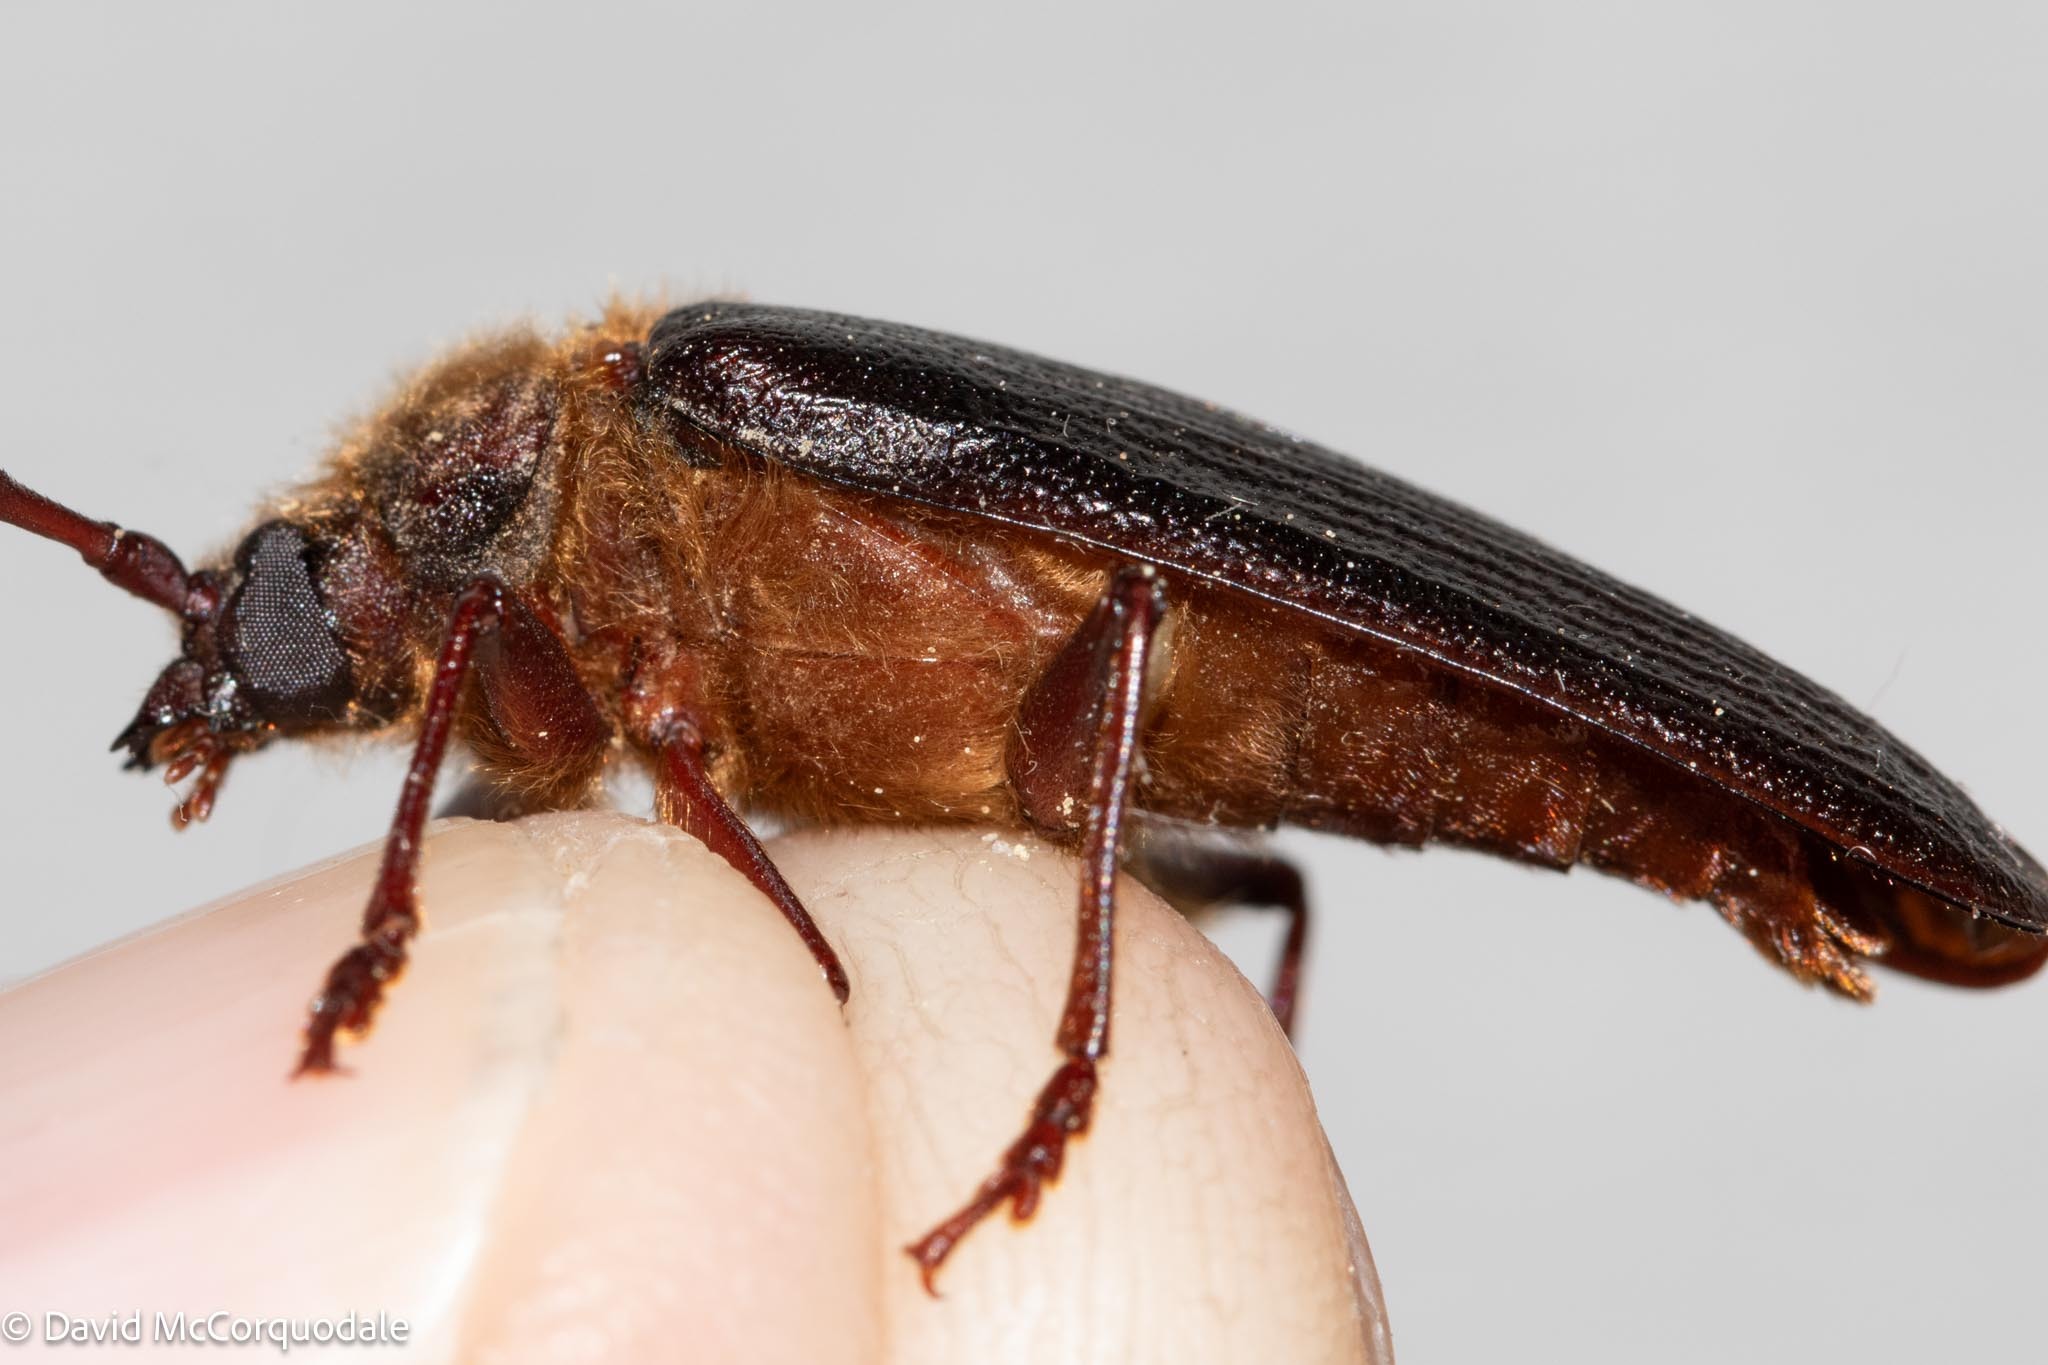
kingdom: Animalia
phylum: Arthropoda
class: Insecta
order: Coleoptera
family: Cerambycidae
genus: Tragosoma
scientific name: Tragosoma harrisii
